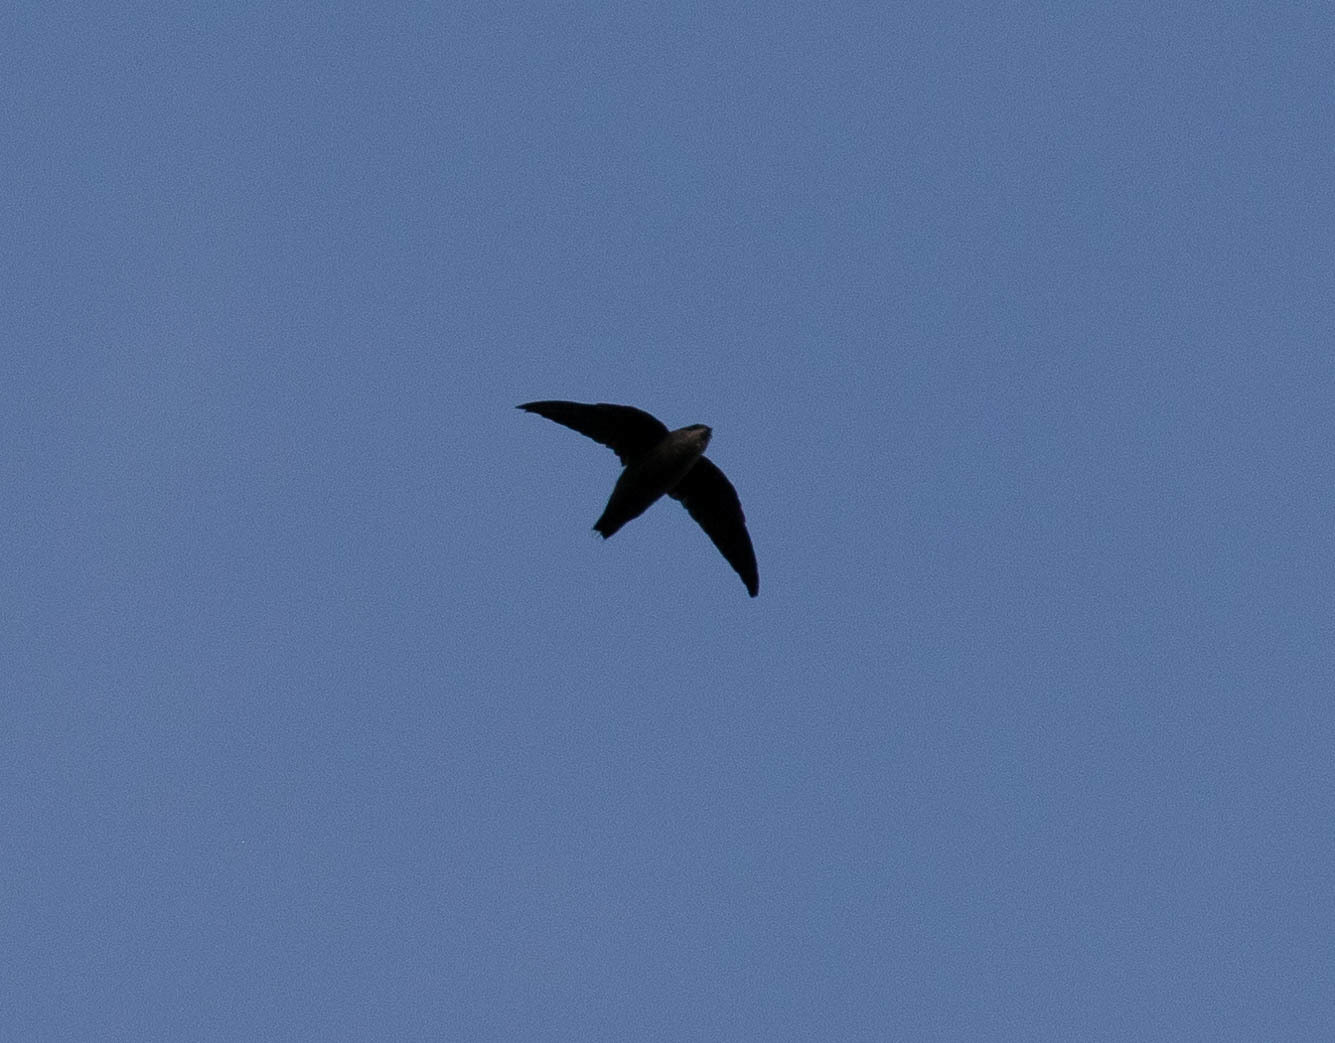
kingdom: Animalia
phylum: Chordata
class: Aves
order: Apodiformes
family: Apodidae
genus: Chaetura
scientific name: Chaetura pelagica
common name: Chimney swift
